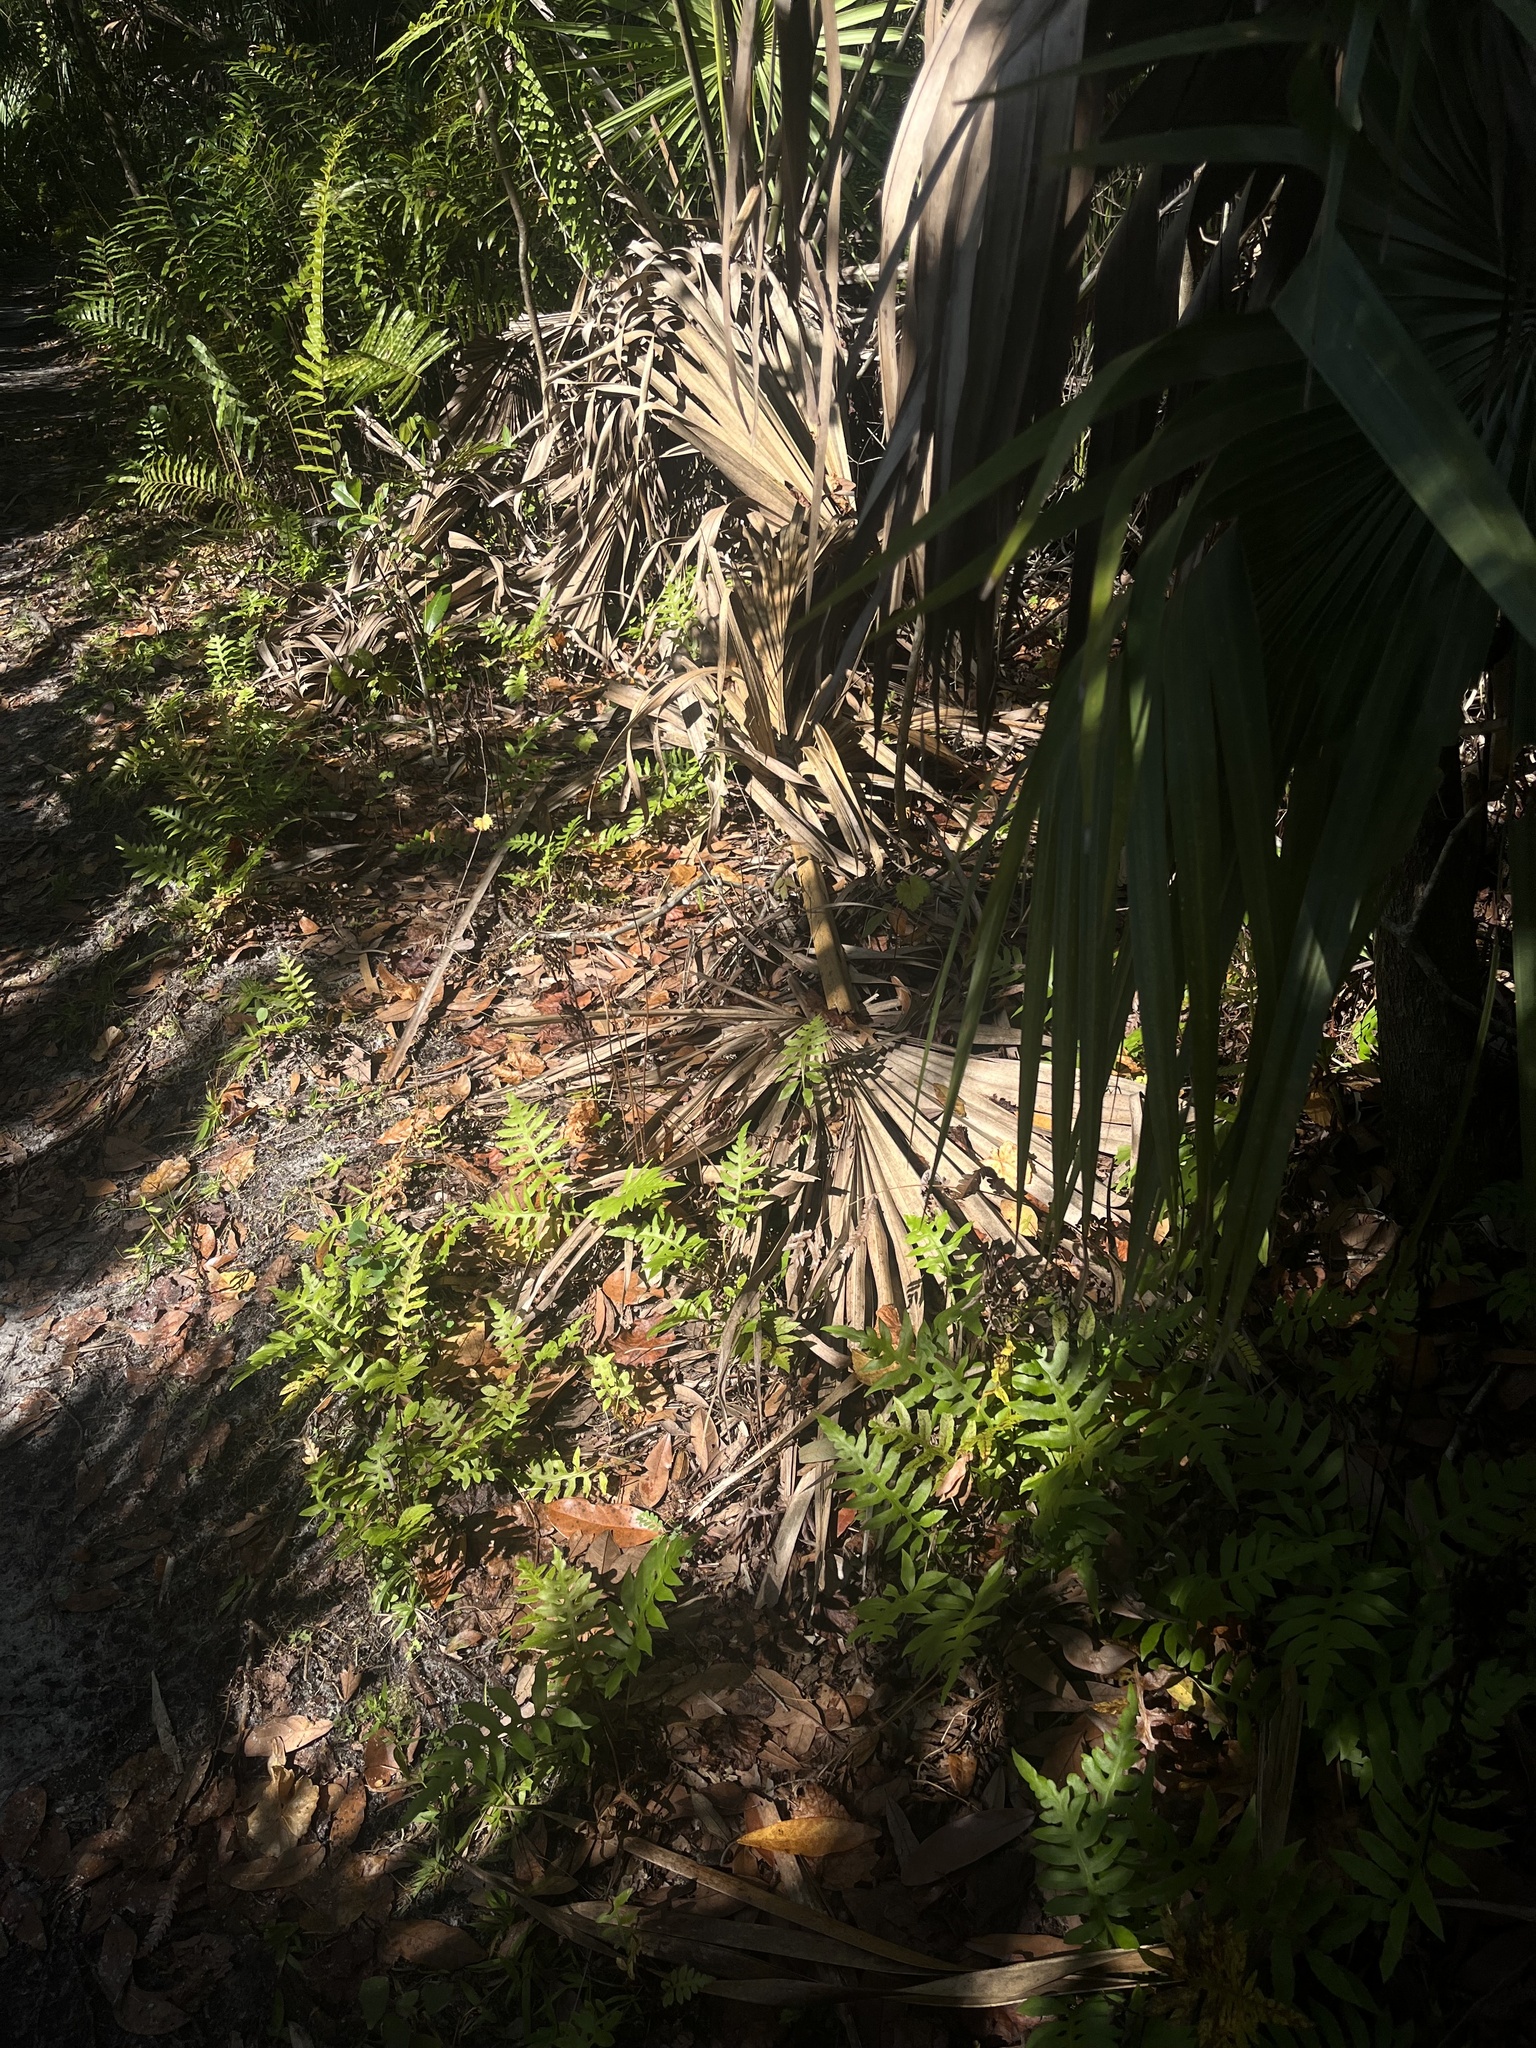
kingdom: Plantae
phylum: Tracheophyta
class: Polypodiopsida
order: Polypodiales
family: Blechnaceae
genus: Lorinseria
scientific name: Lorinseria areolata
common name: Dwarf chain fern
